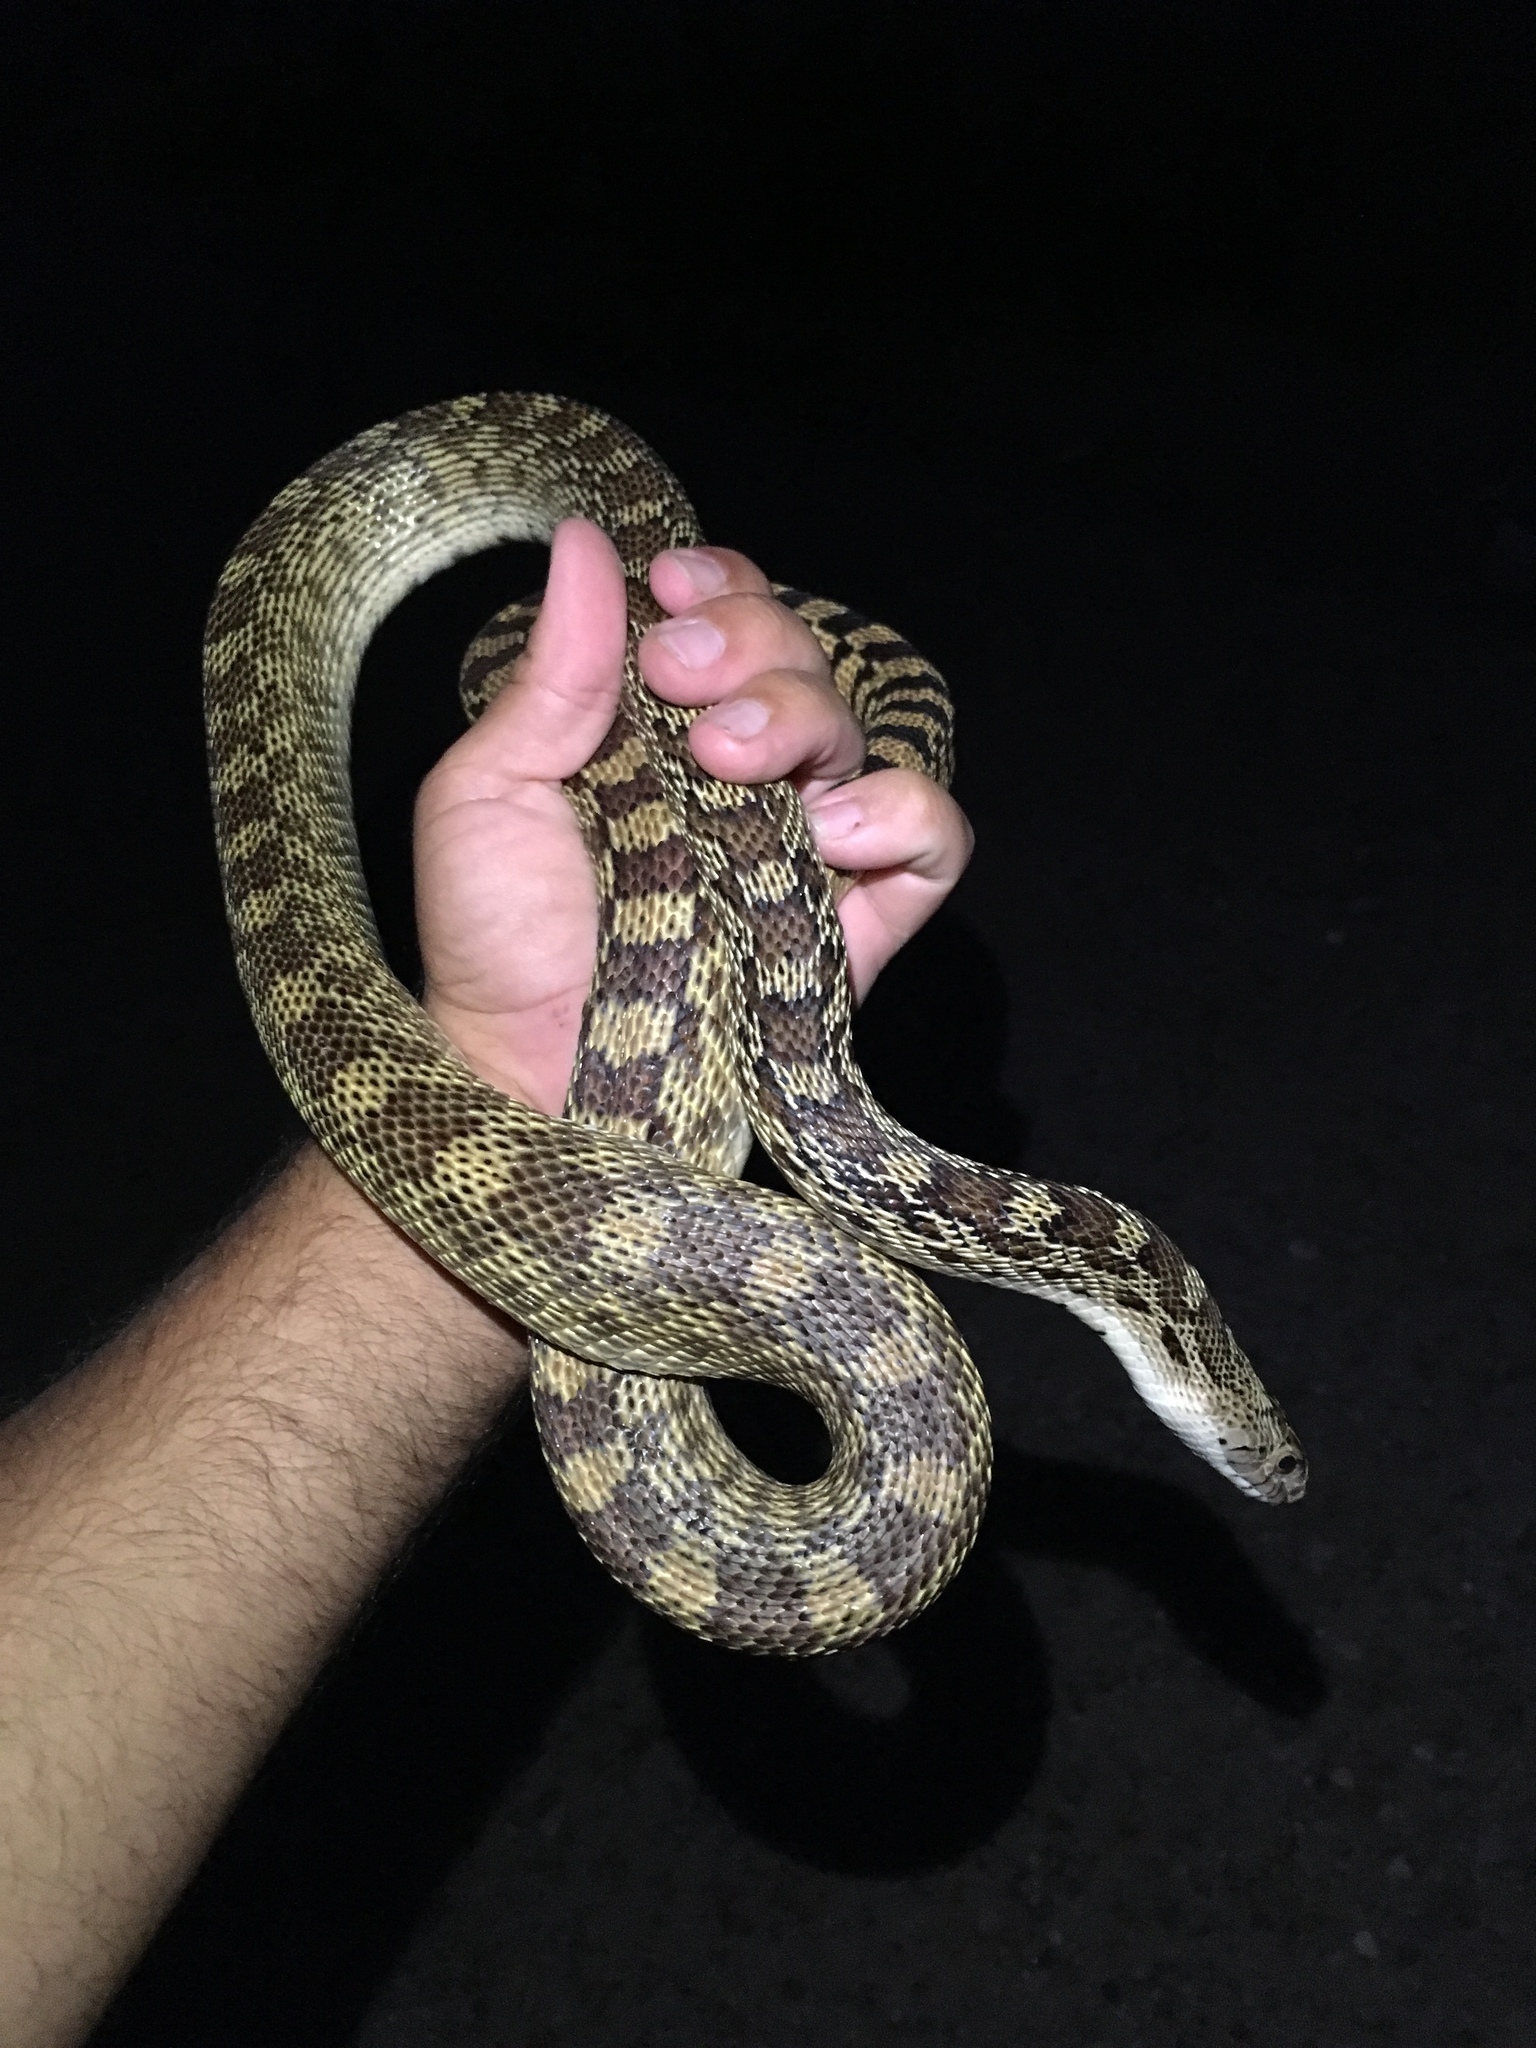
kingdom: Animalia
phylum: Chordata
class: Squamata
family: Colubridae
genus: Pituophis
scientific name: Pituophis catenifer
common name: Gopher snake
